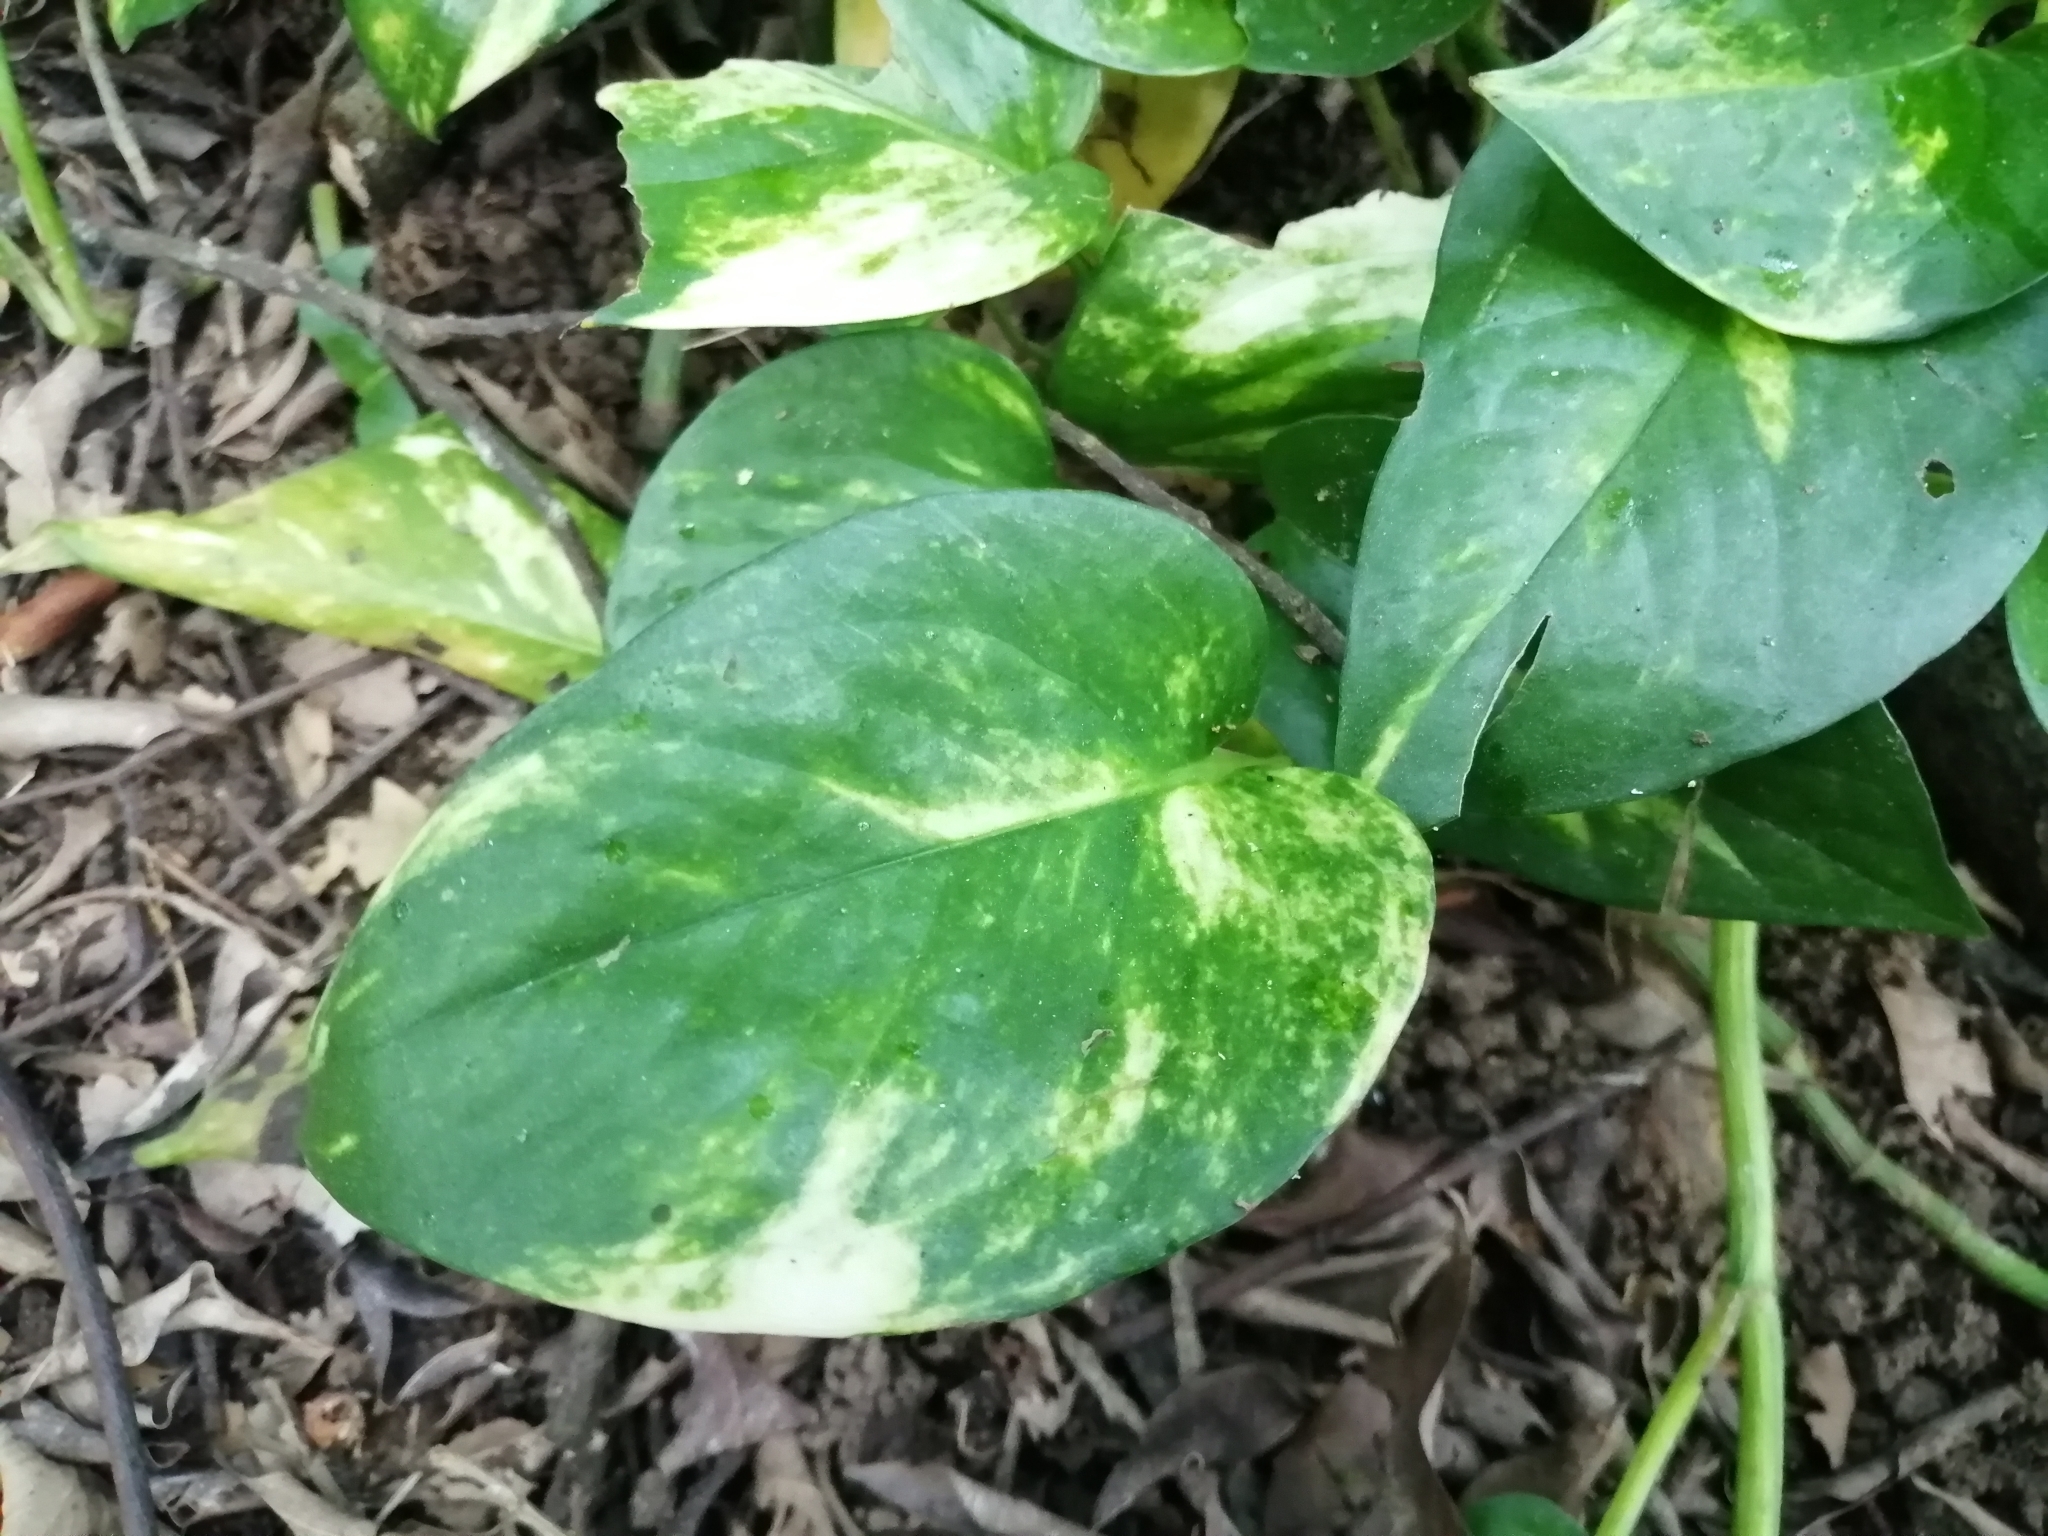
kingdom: Plantae
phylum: Tracheophyta
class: Liliopsida
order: Alismatales
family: Araceae
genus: Epipremnum
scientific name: Epipremnum aureum
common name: Golden hunter's-robe
